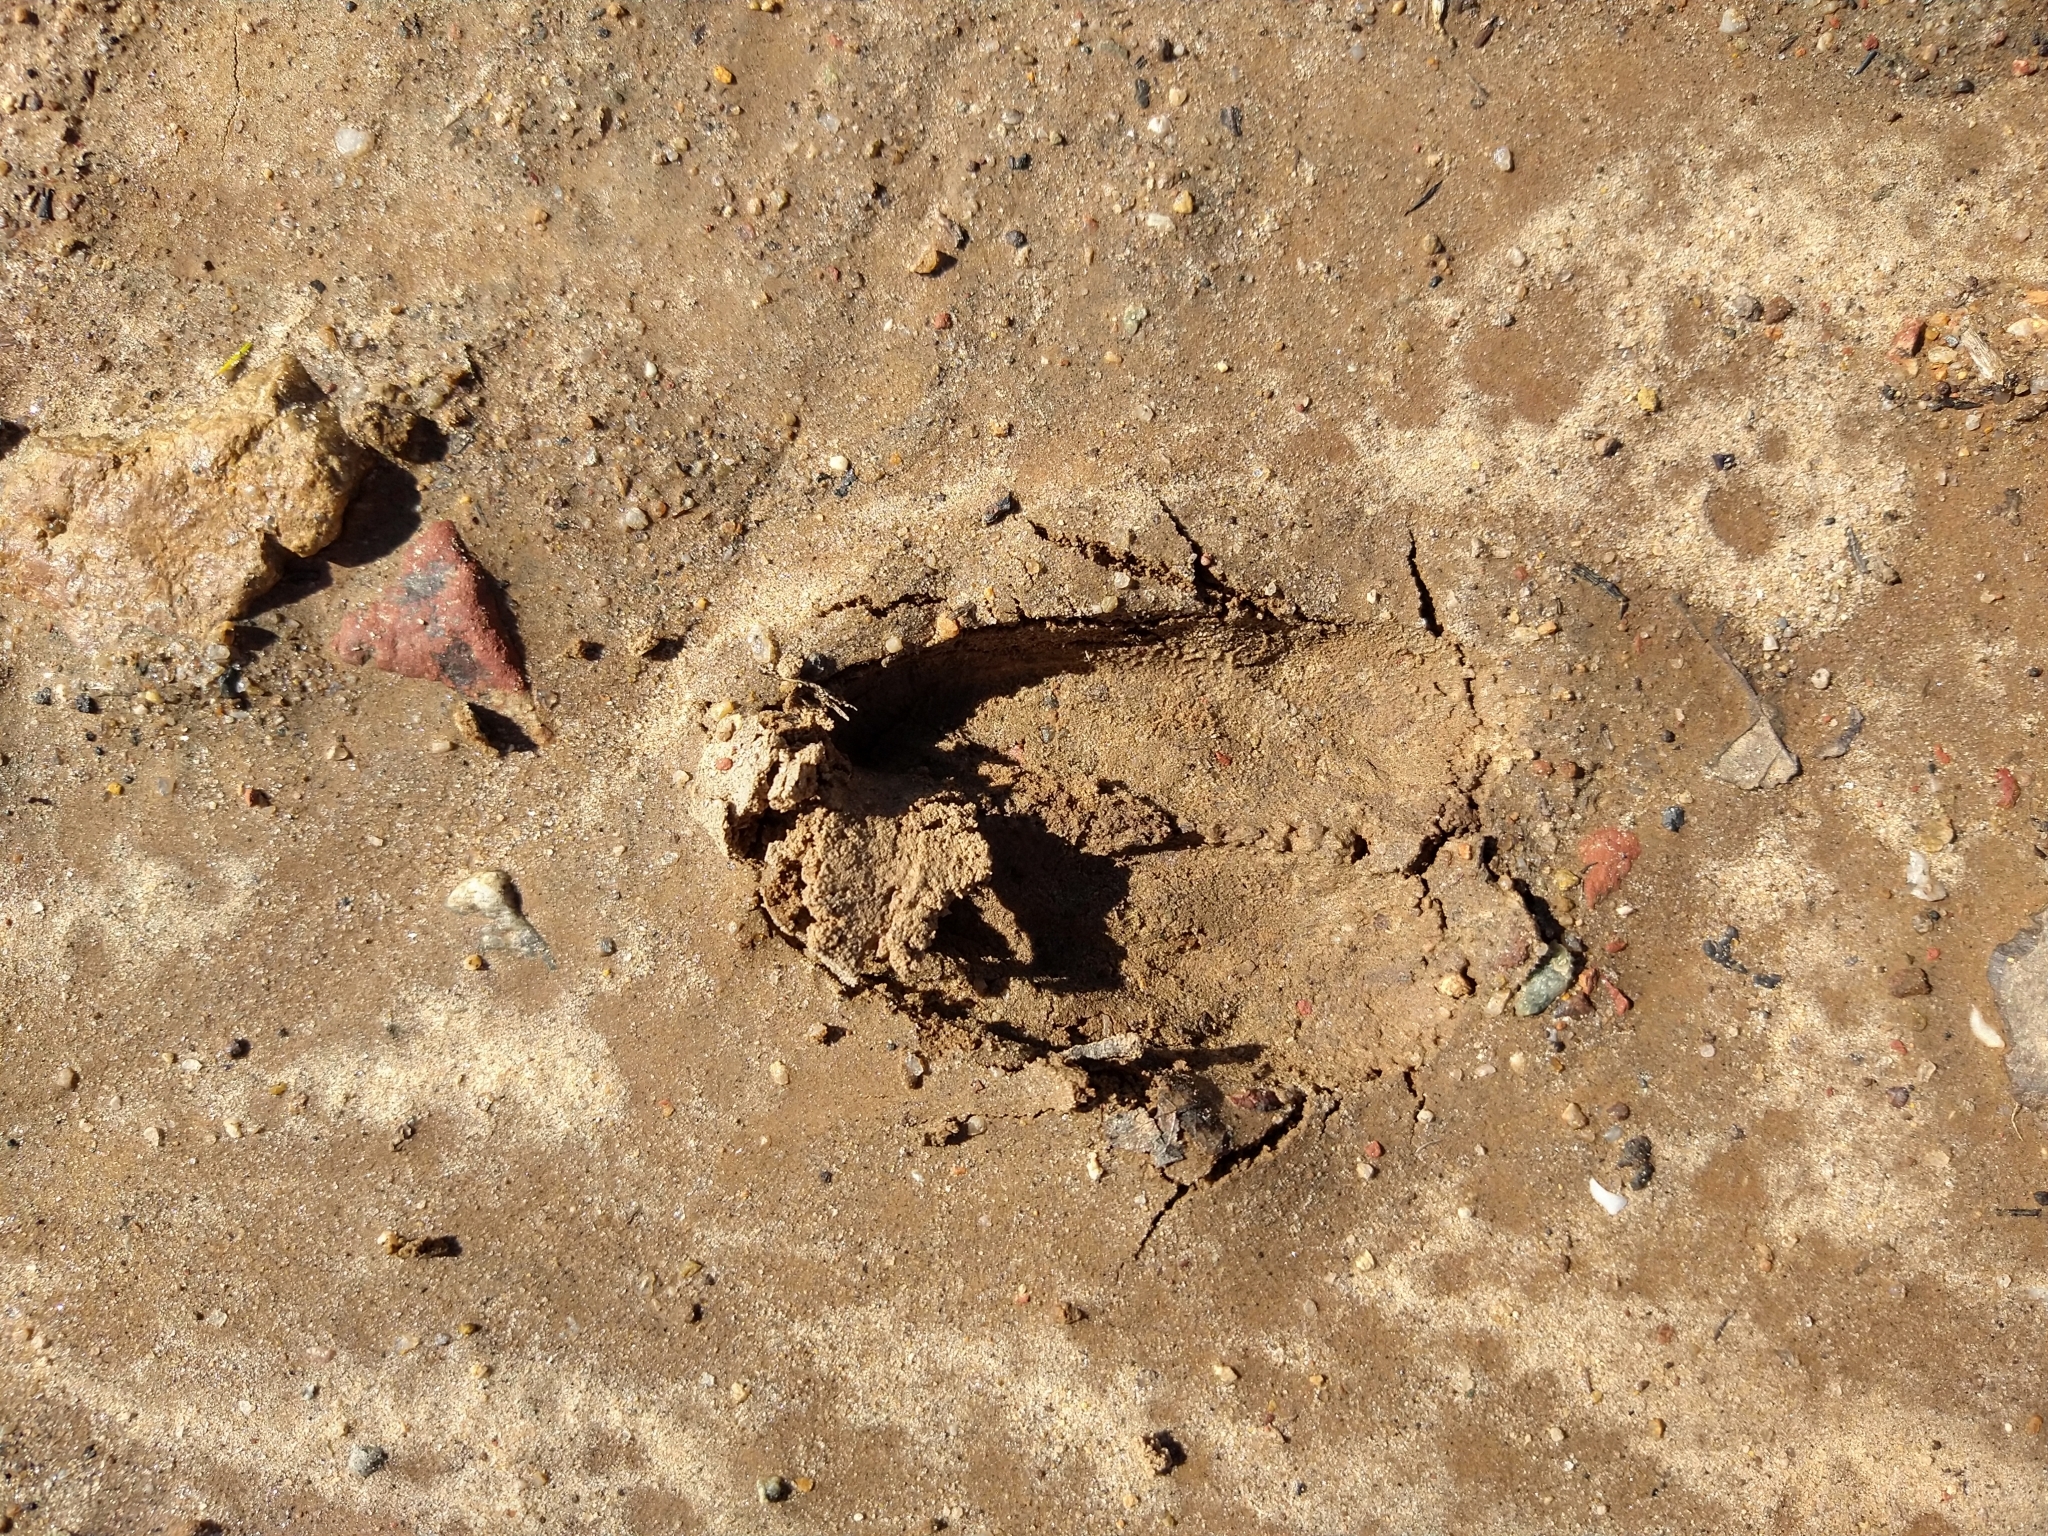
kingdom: Animalia
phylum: Chordata
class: Mammalia
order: Artiodactyla
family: Cervidae
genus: Odocoileus
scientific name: Odocoileus hemionus
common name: Mule deer
